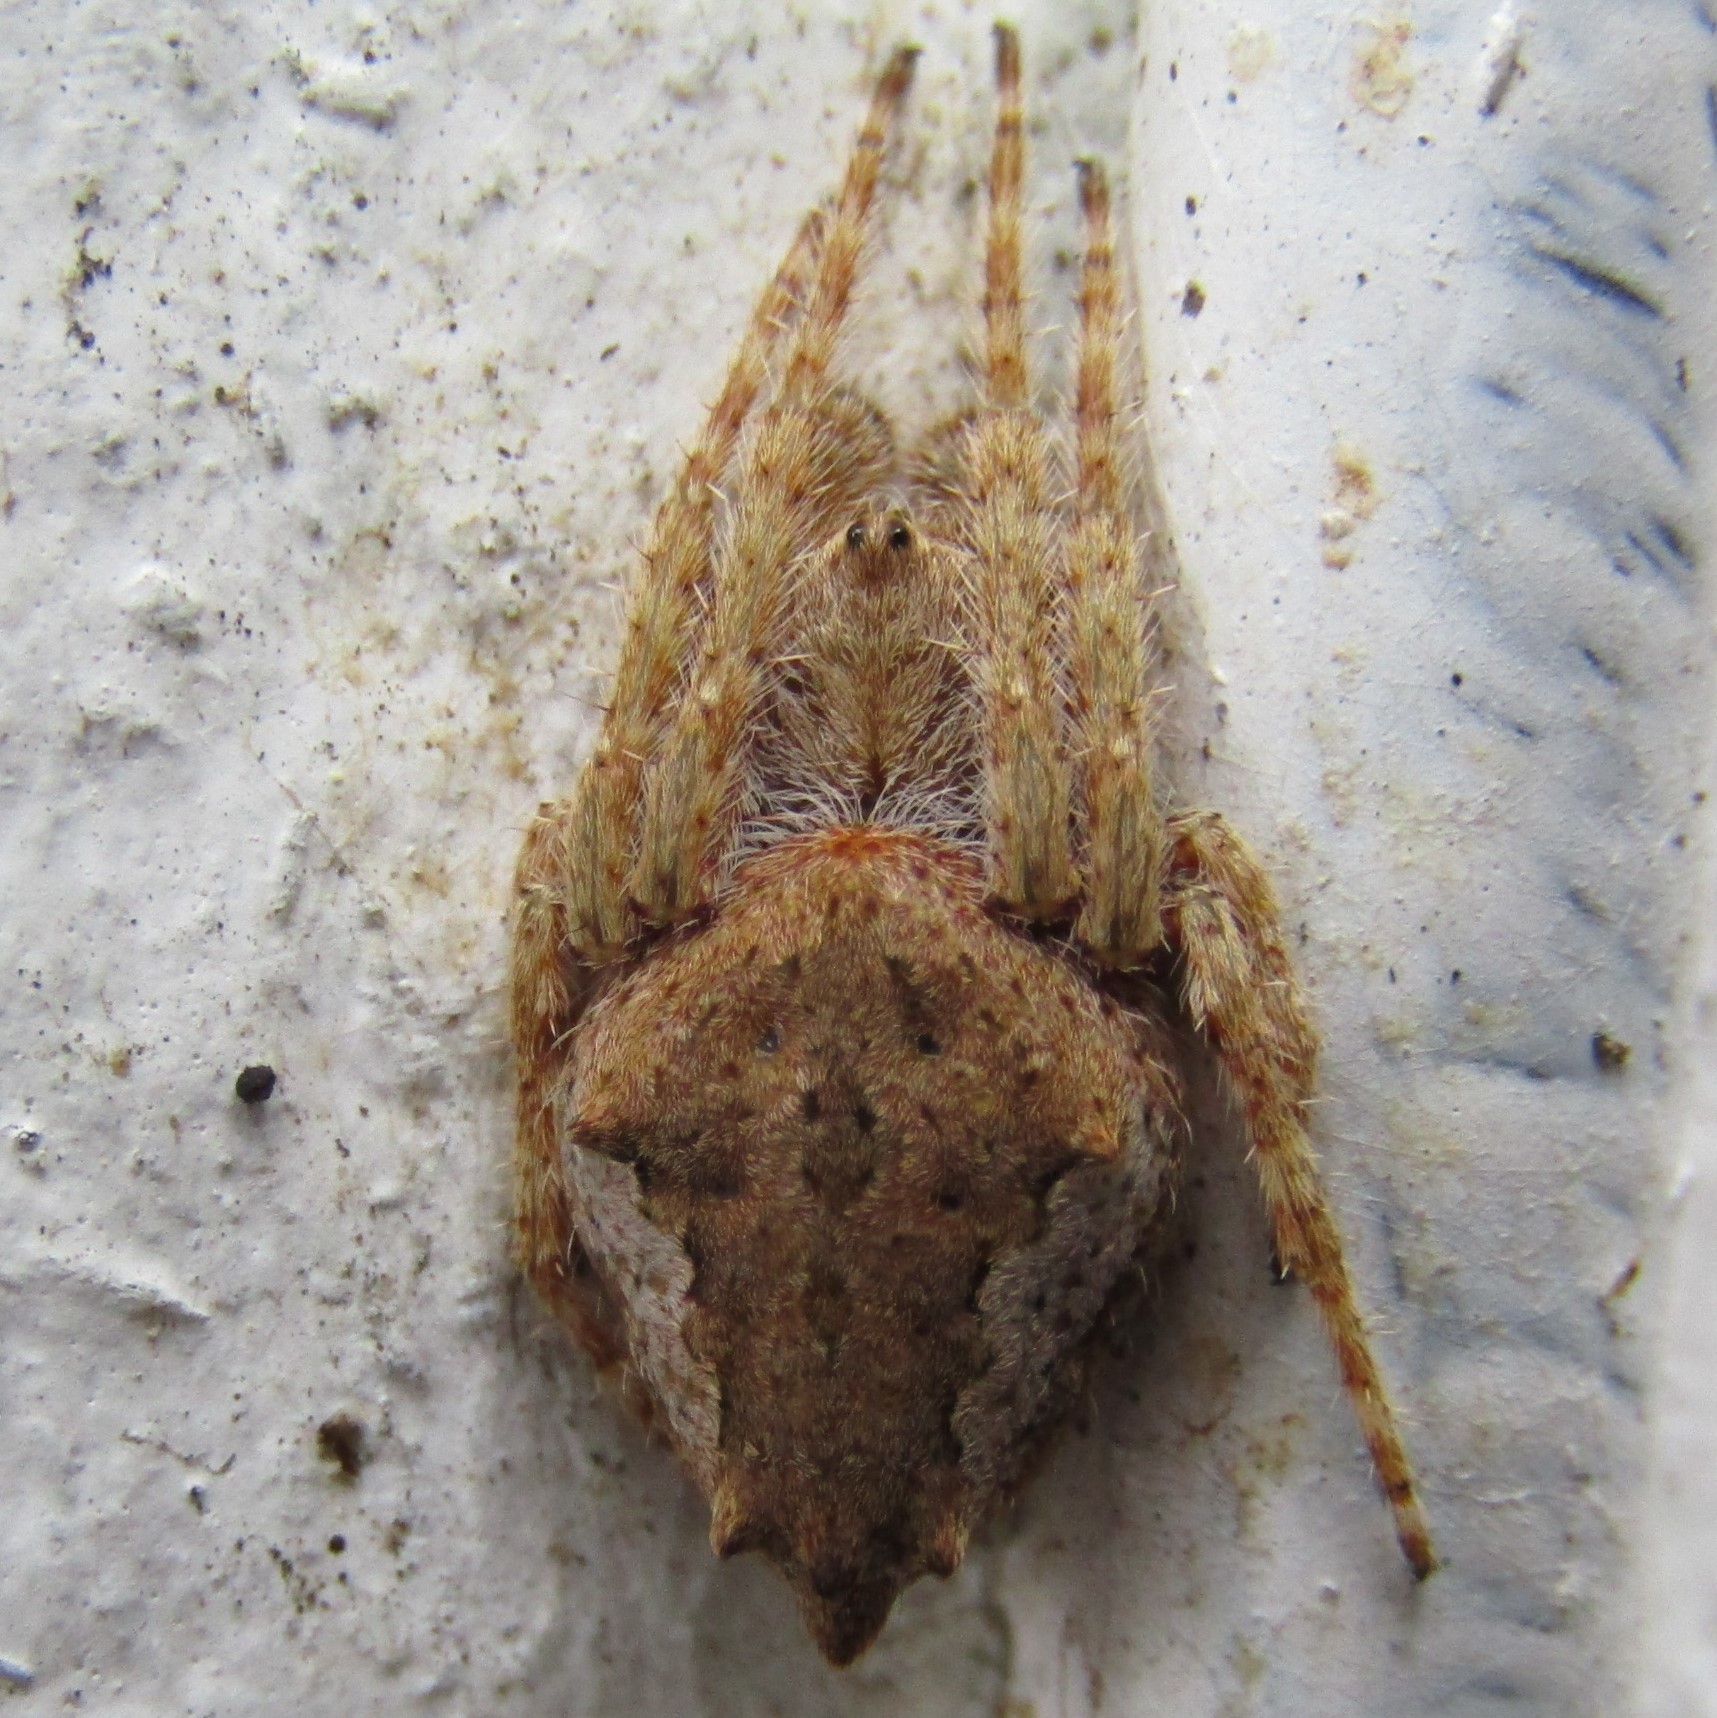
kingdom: Animalia
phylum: Arthropoda
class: Arachnida
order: Araneae
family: Araneidae
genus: Eriophora
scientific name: Eriophora pustulosa
